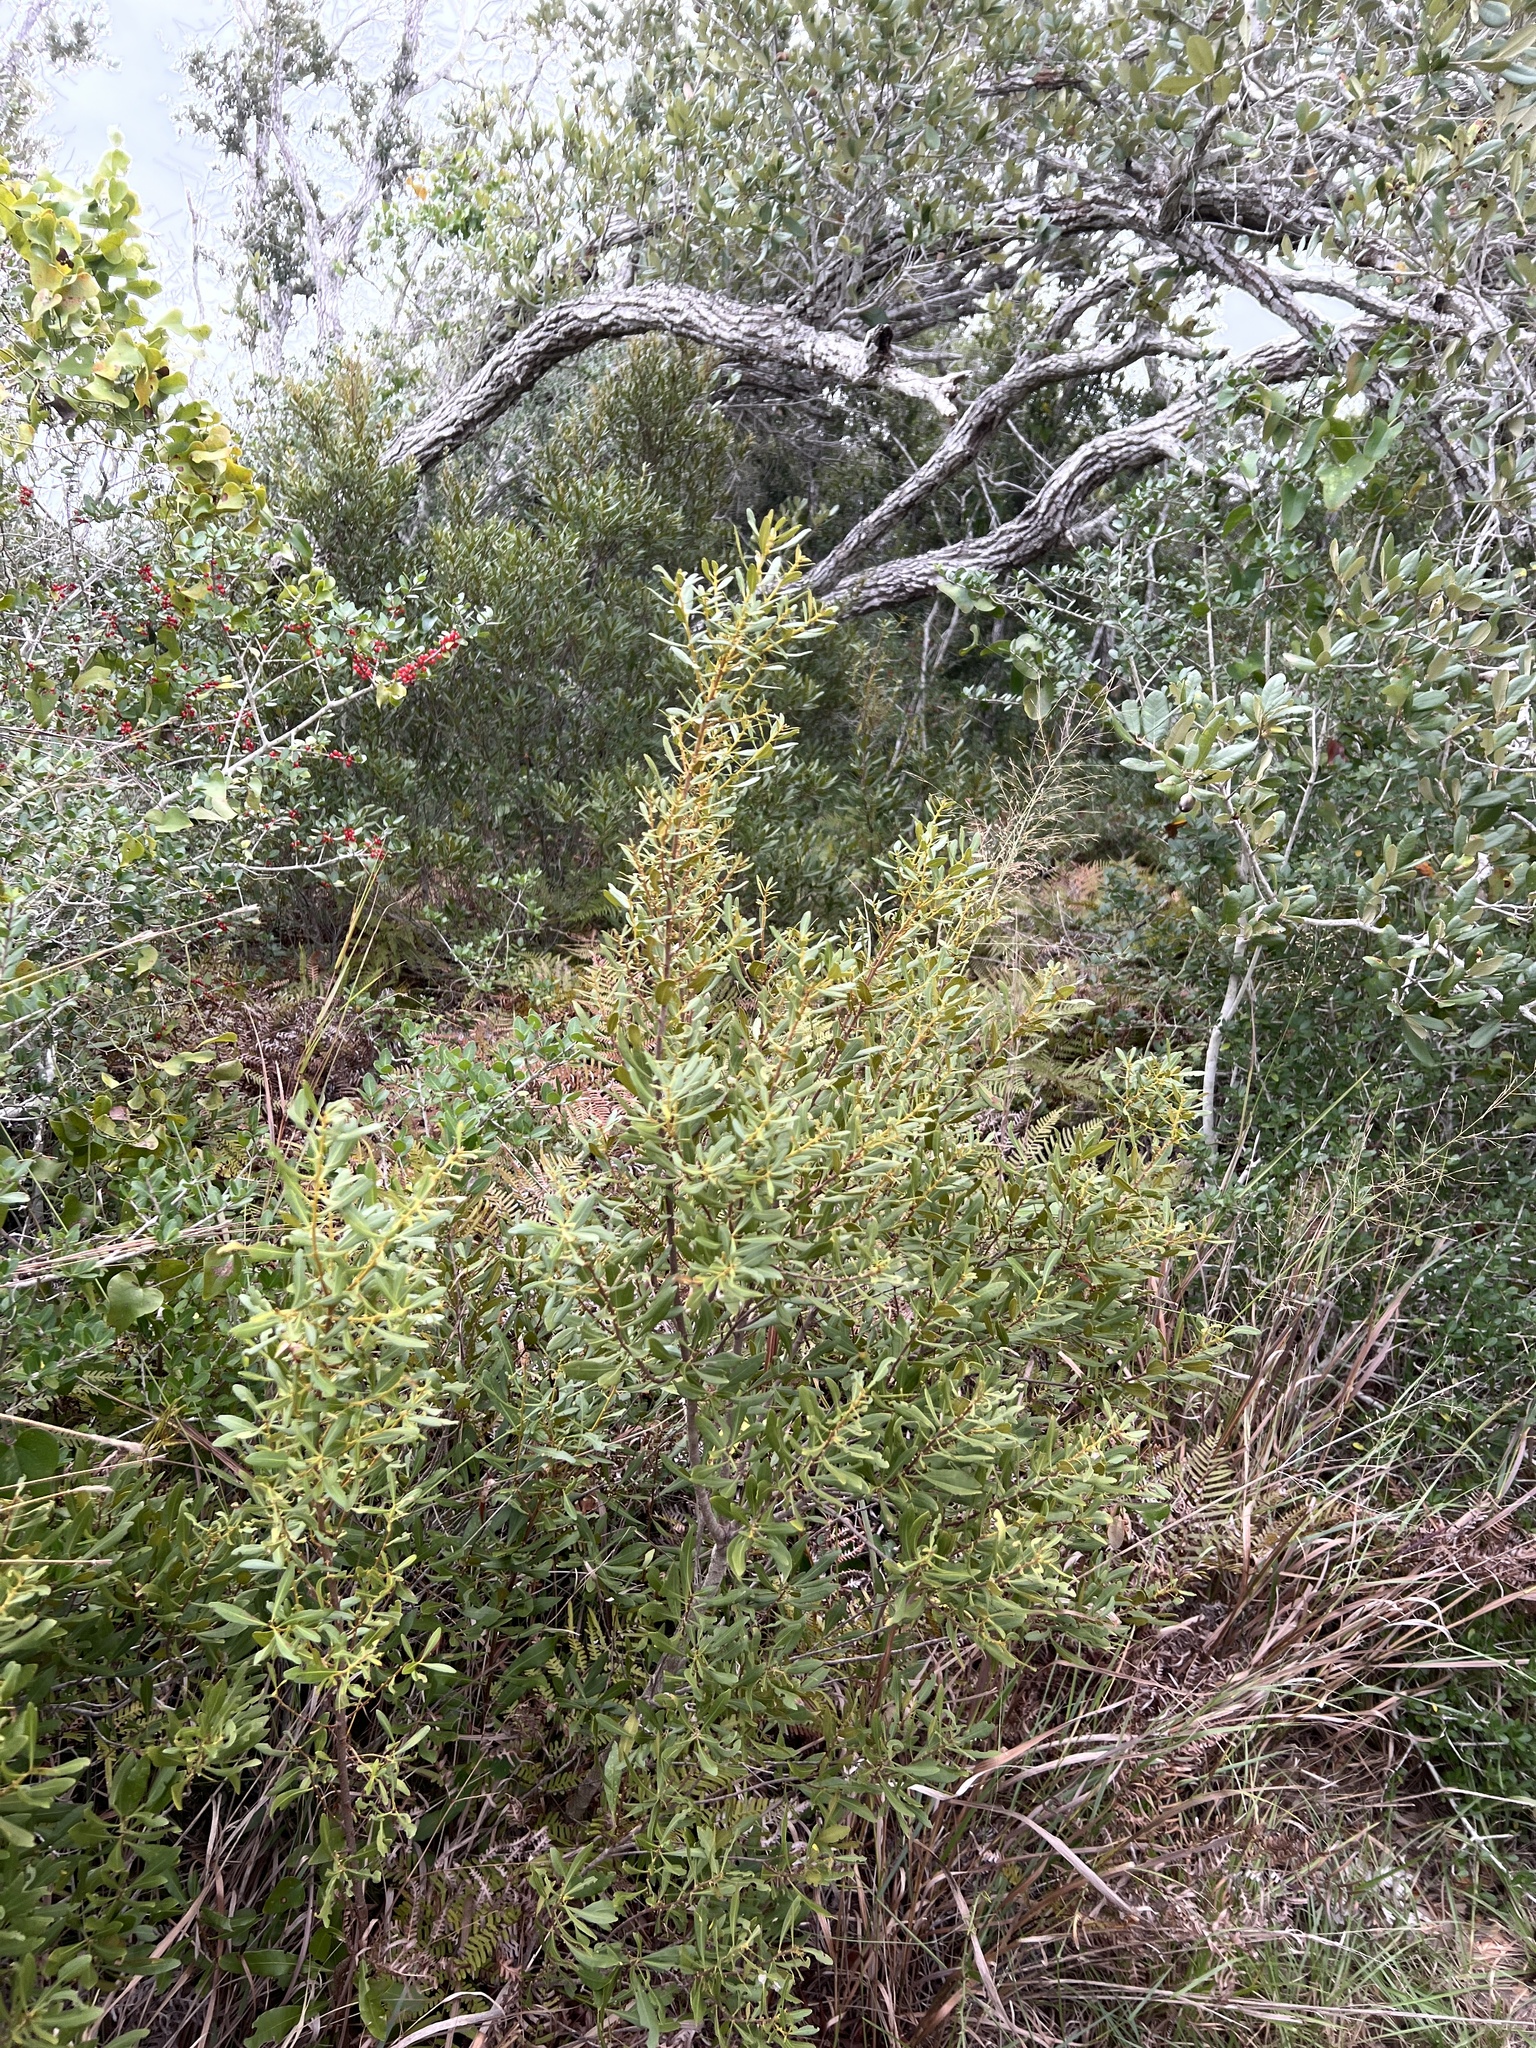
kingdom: Plantae
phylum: Tracheophyta
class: Magnoliopsida
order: Fagales
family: Myricaceae
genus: Morella
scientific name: Morella cerifera
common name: Wax myrtle
